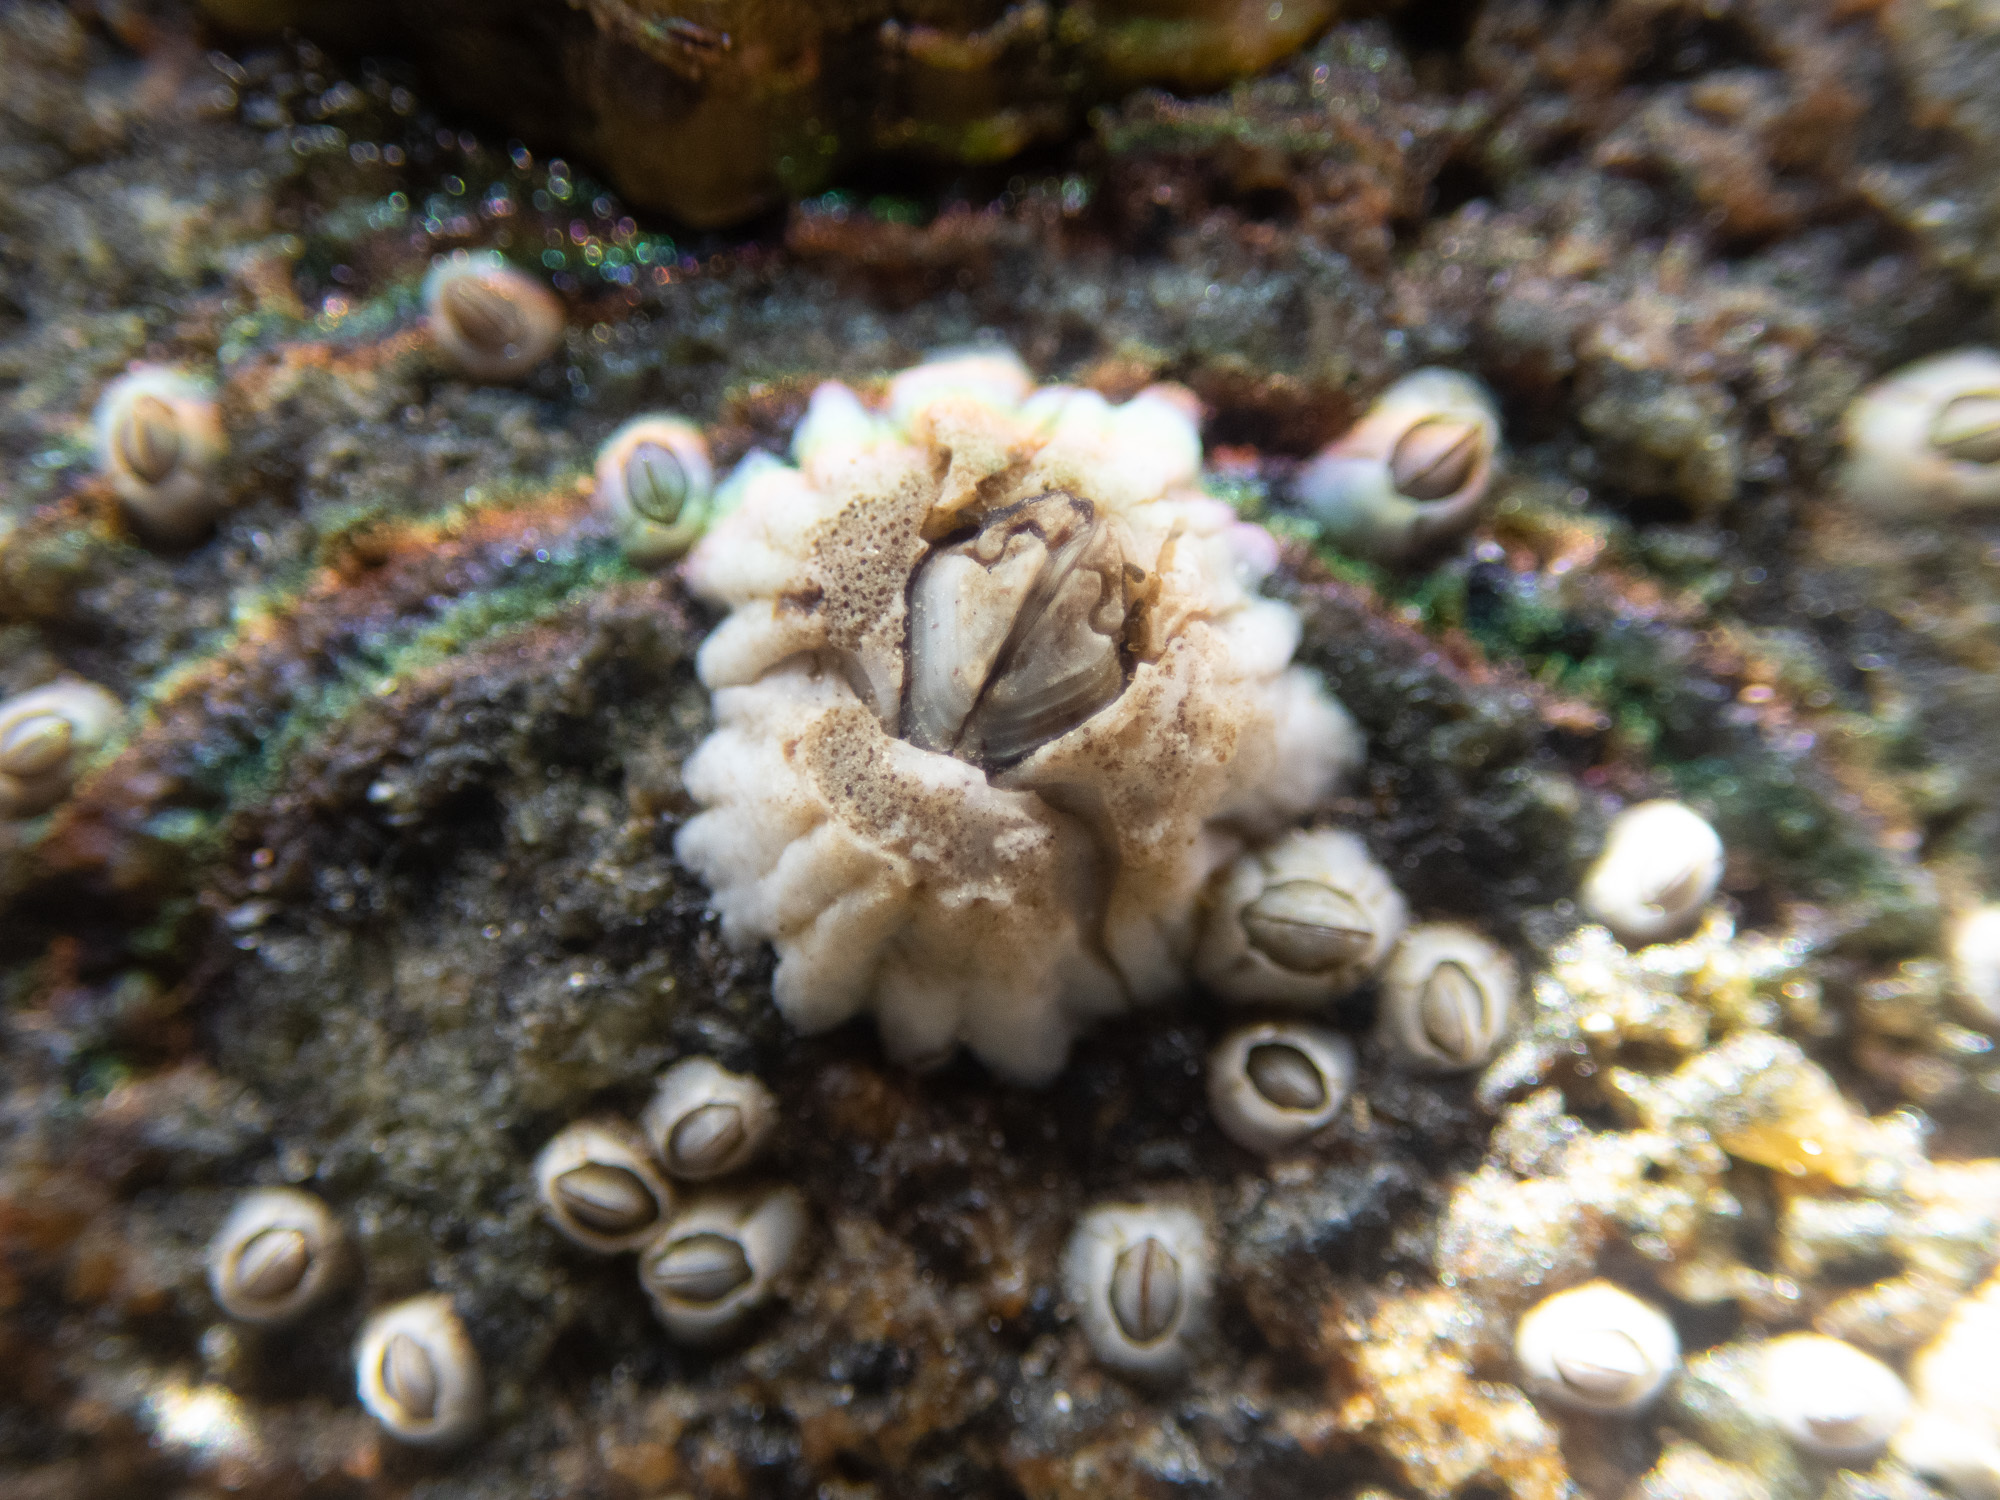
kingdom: Animalia
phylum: Arthropoda
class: Maxillopoda
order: Sessilia
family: Archaeobalanidae
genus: Semibalanus
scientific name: Semibalanus balanoides
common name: Acorn barnacle
